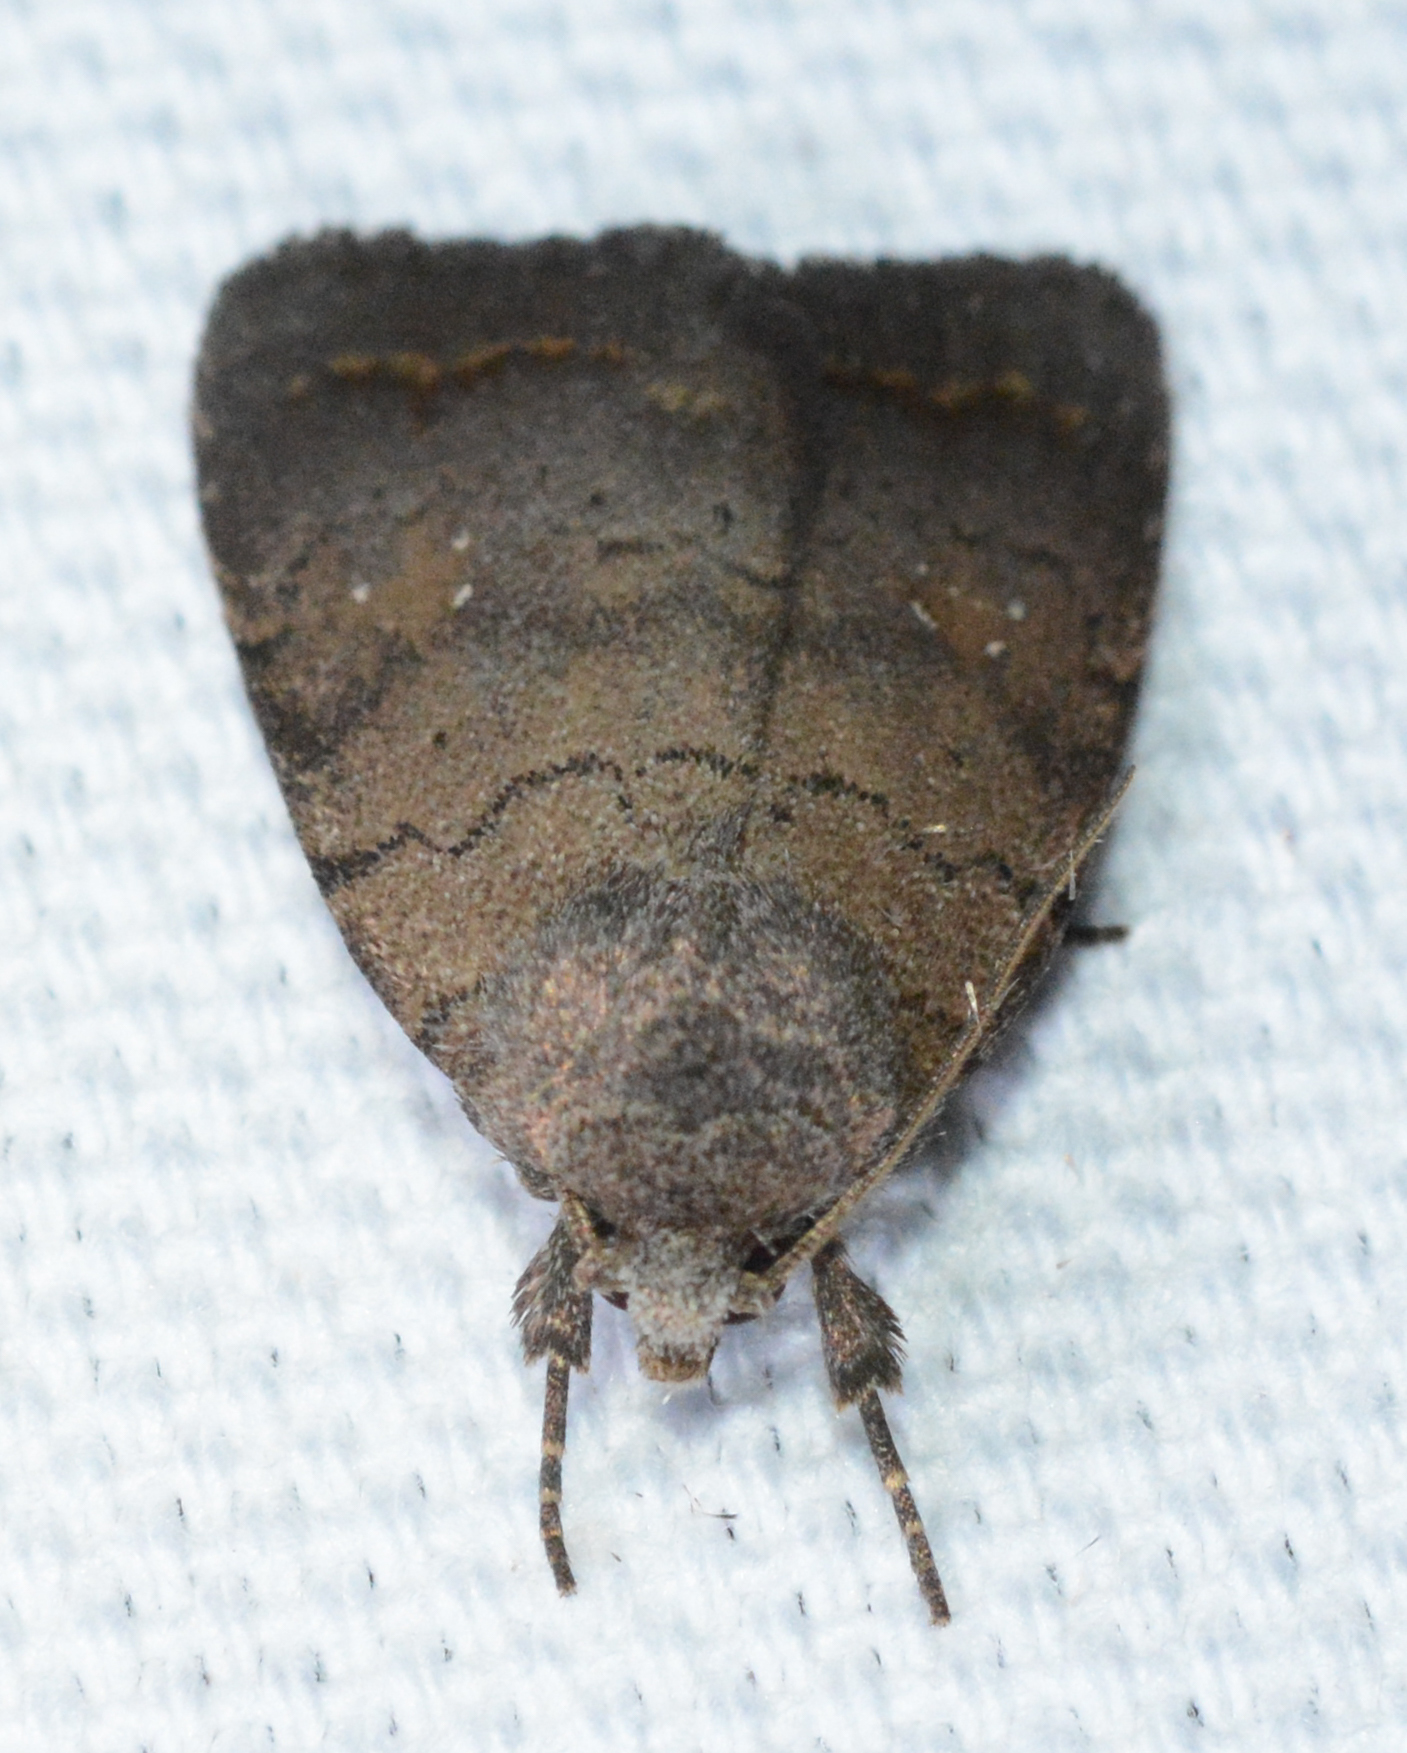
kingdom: Animalia
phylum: Arthropoda
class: Insecta
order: Lepidoptera
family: Noctuidae
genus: Athetis
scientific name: Athetis tarda
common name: Slowpoke moth
